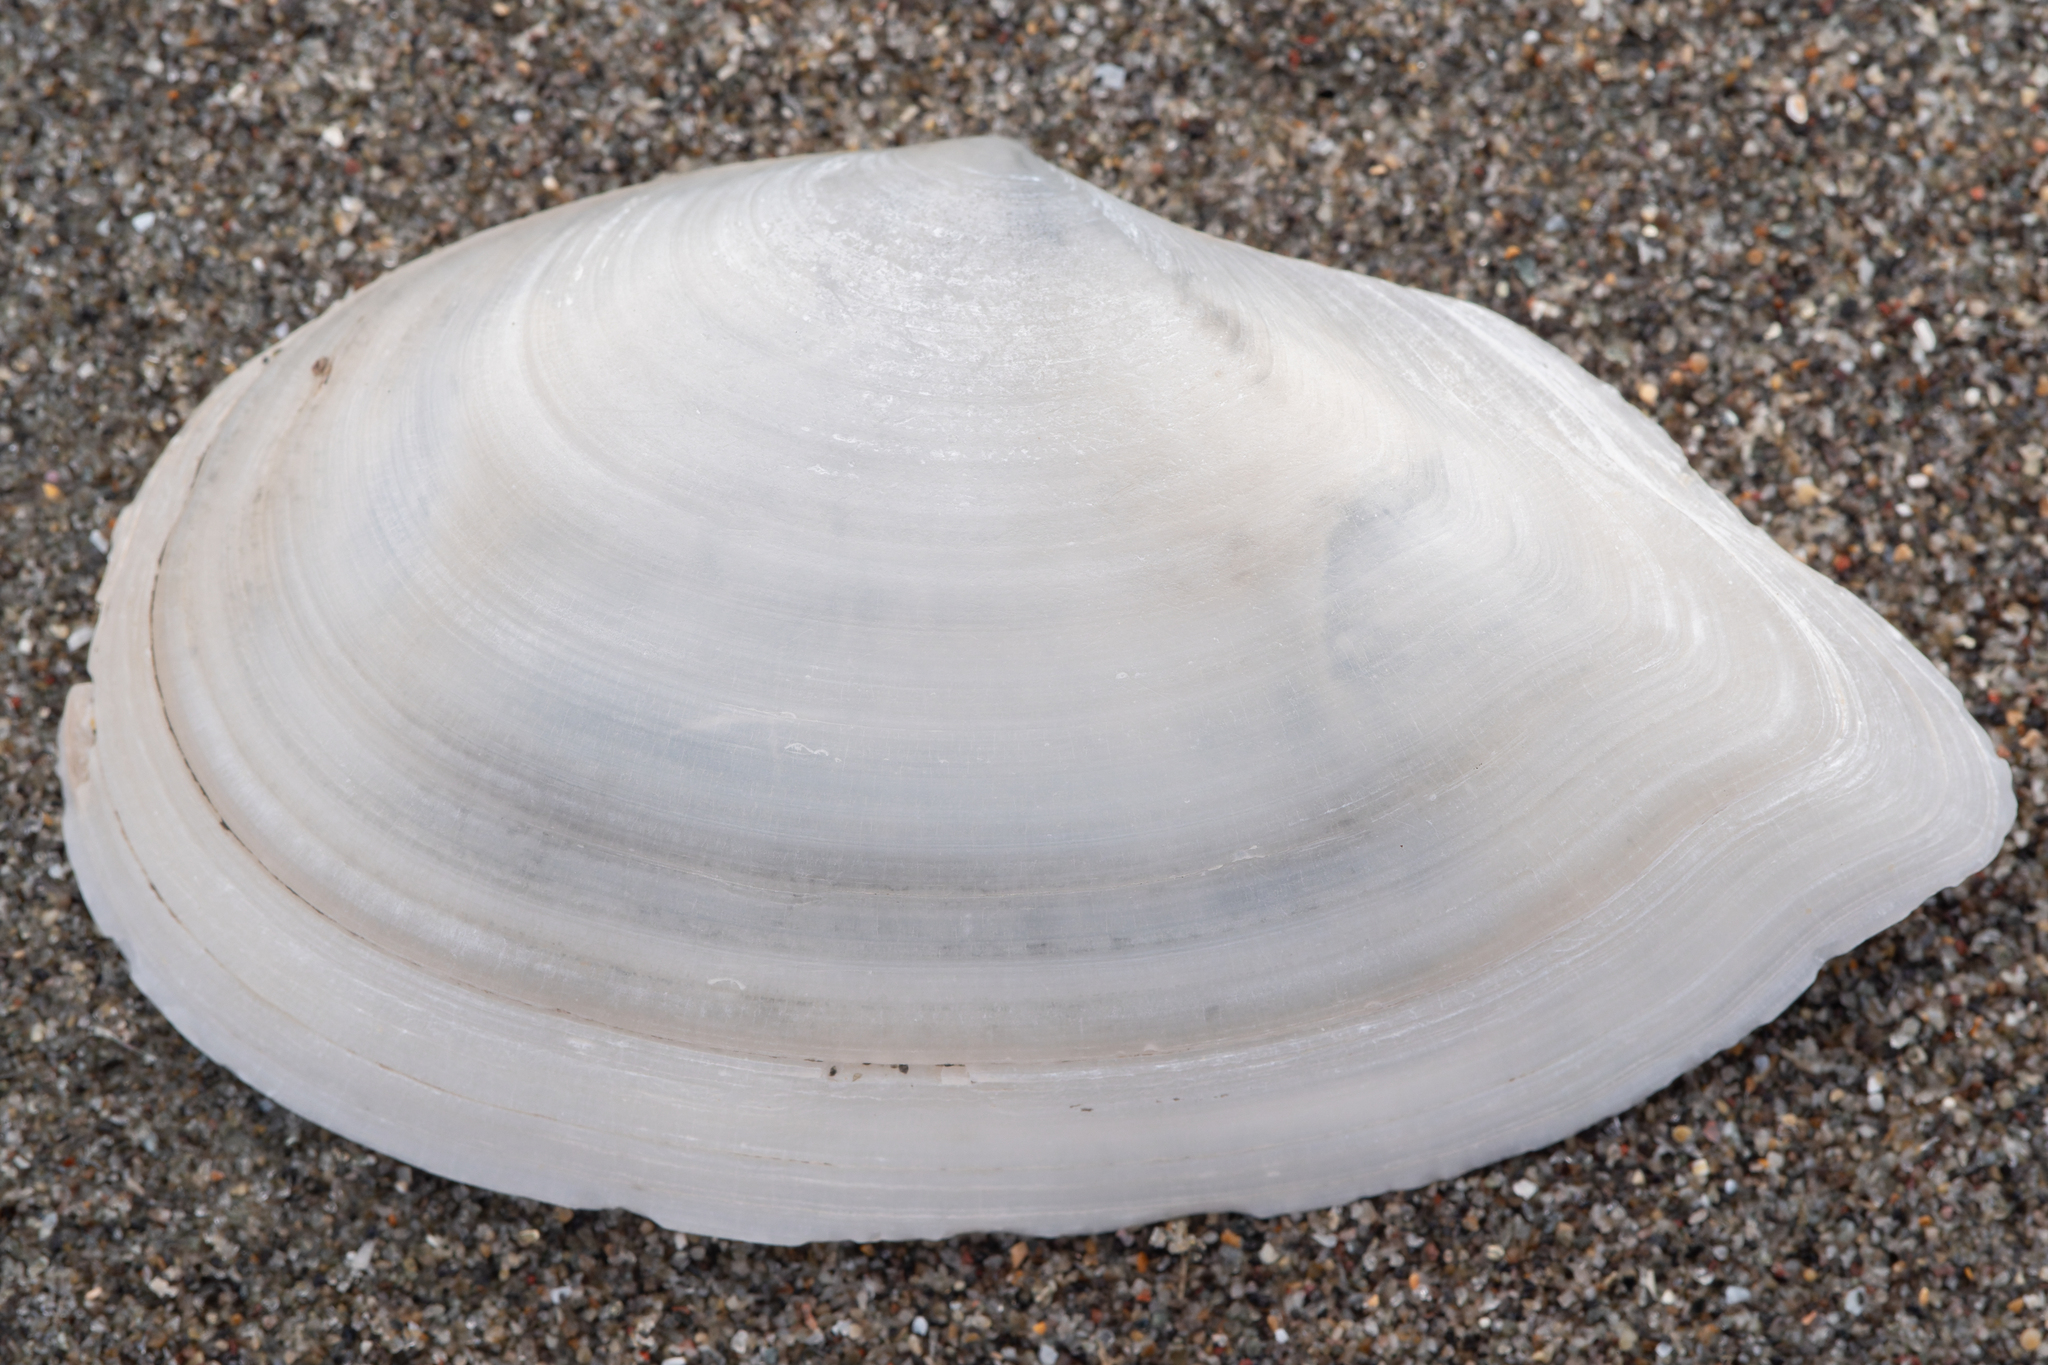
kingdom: Animalia
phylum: Mollusca
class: Bivalvia
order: Cardiida
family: Tellinidae
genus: Ardeamya
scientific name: Ardeamya spenceri
